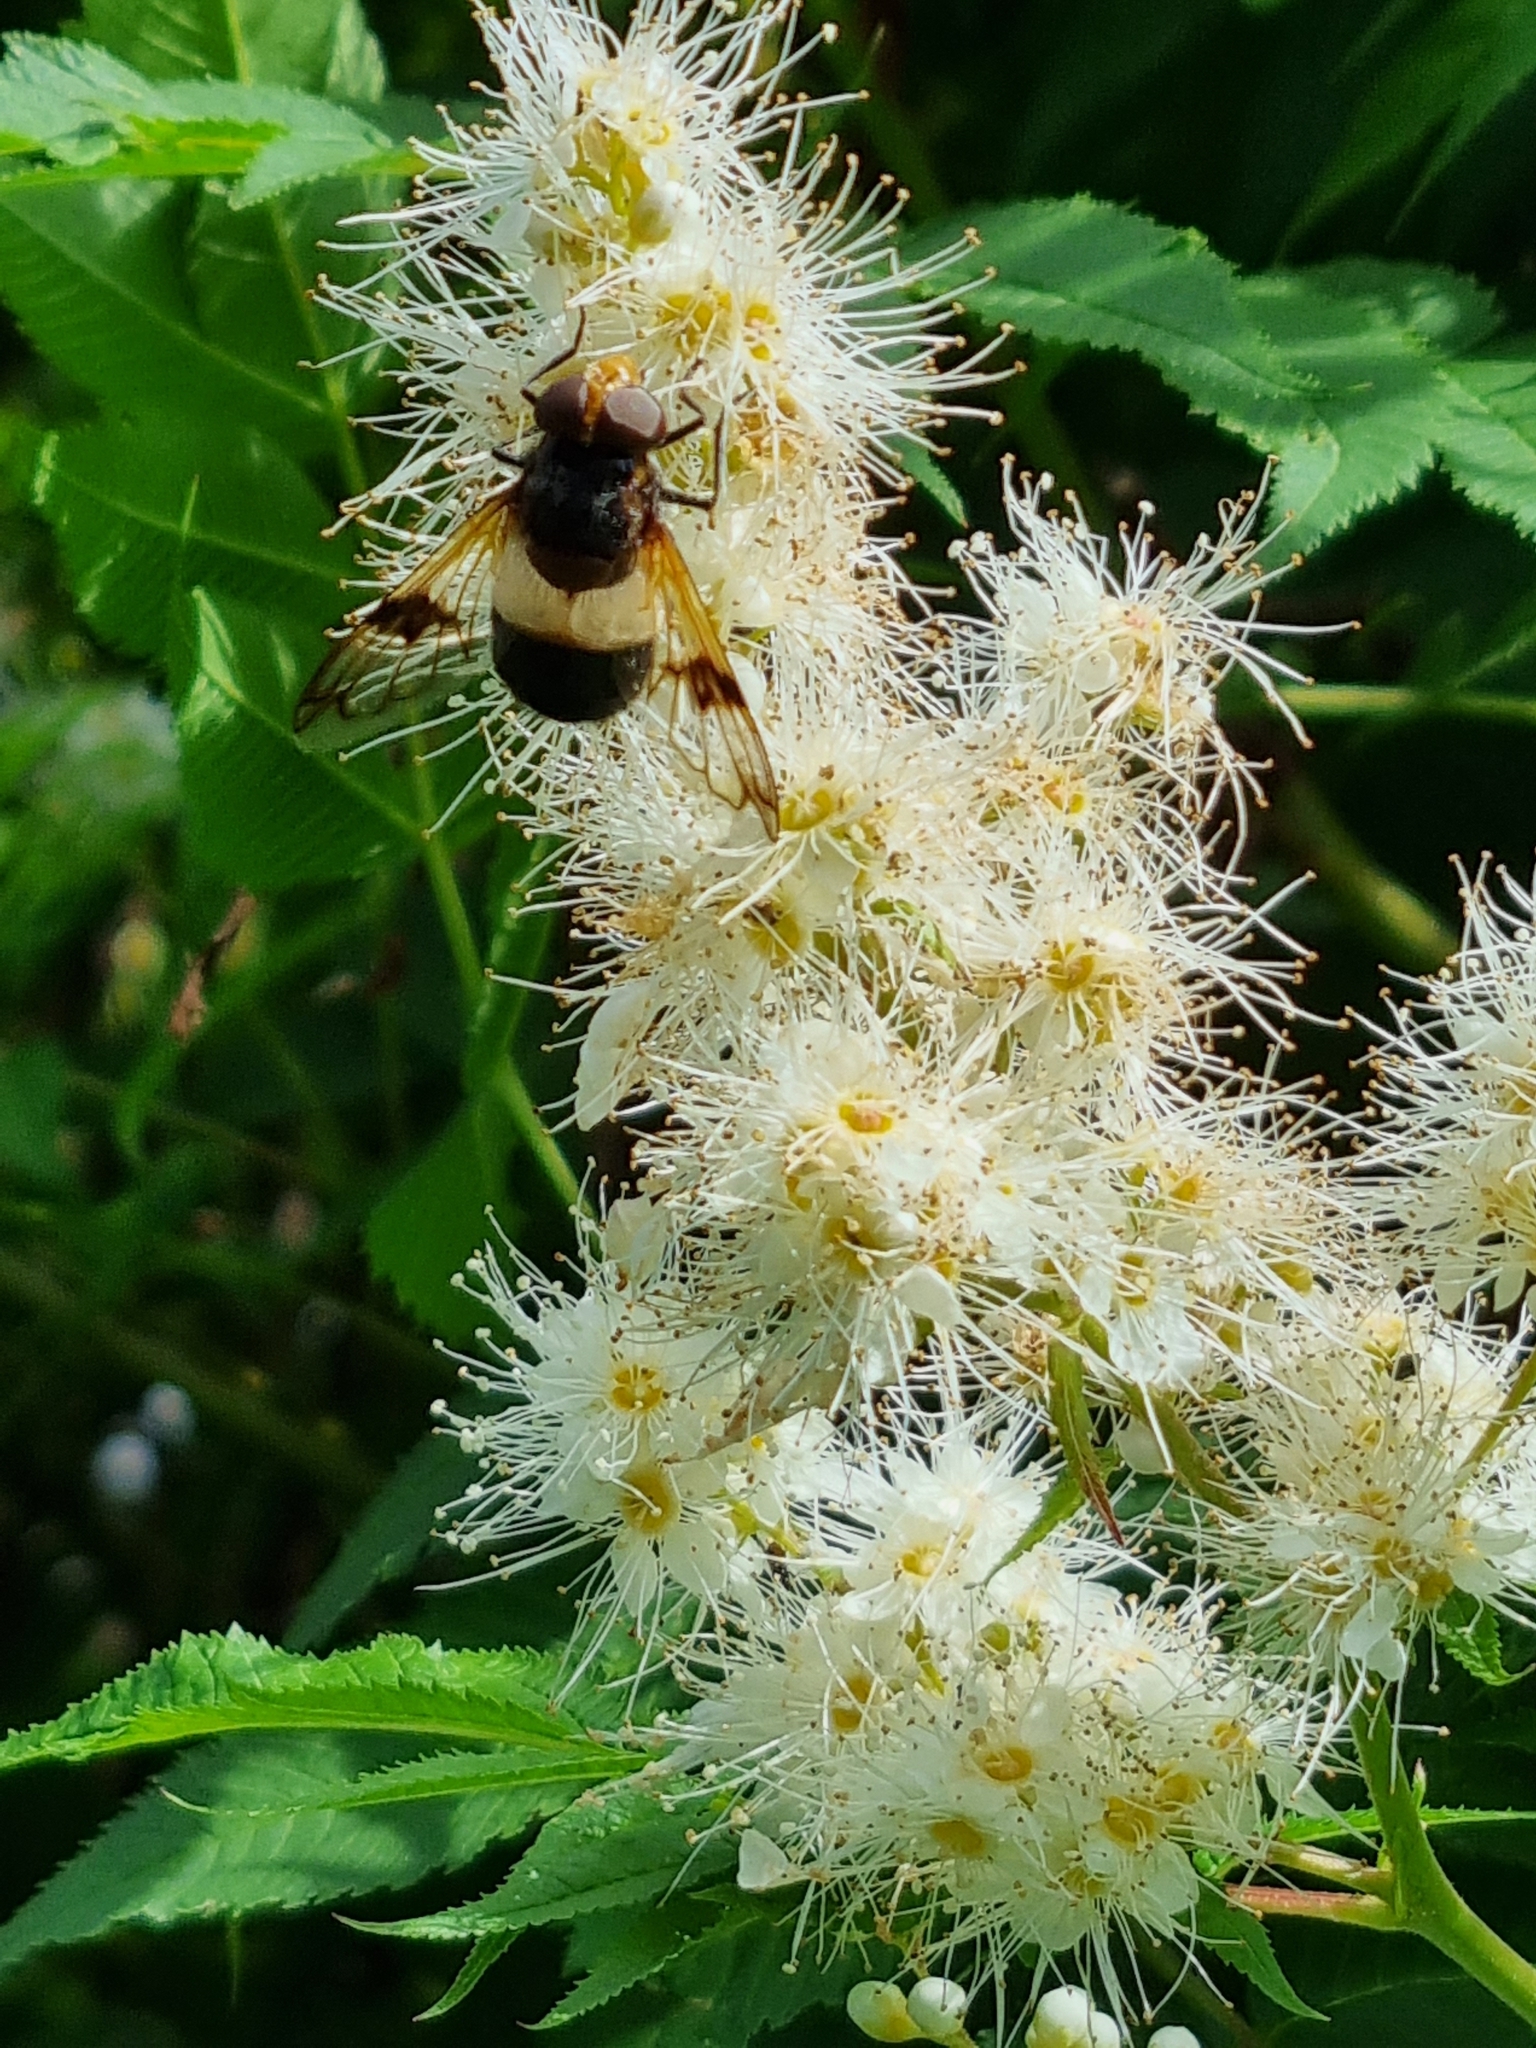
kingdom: Animalia
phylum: Arthropoda
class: Insecta
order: Diptera
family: Syrphidae
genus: Volucella
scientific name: Volucella pellucens
